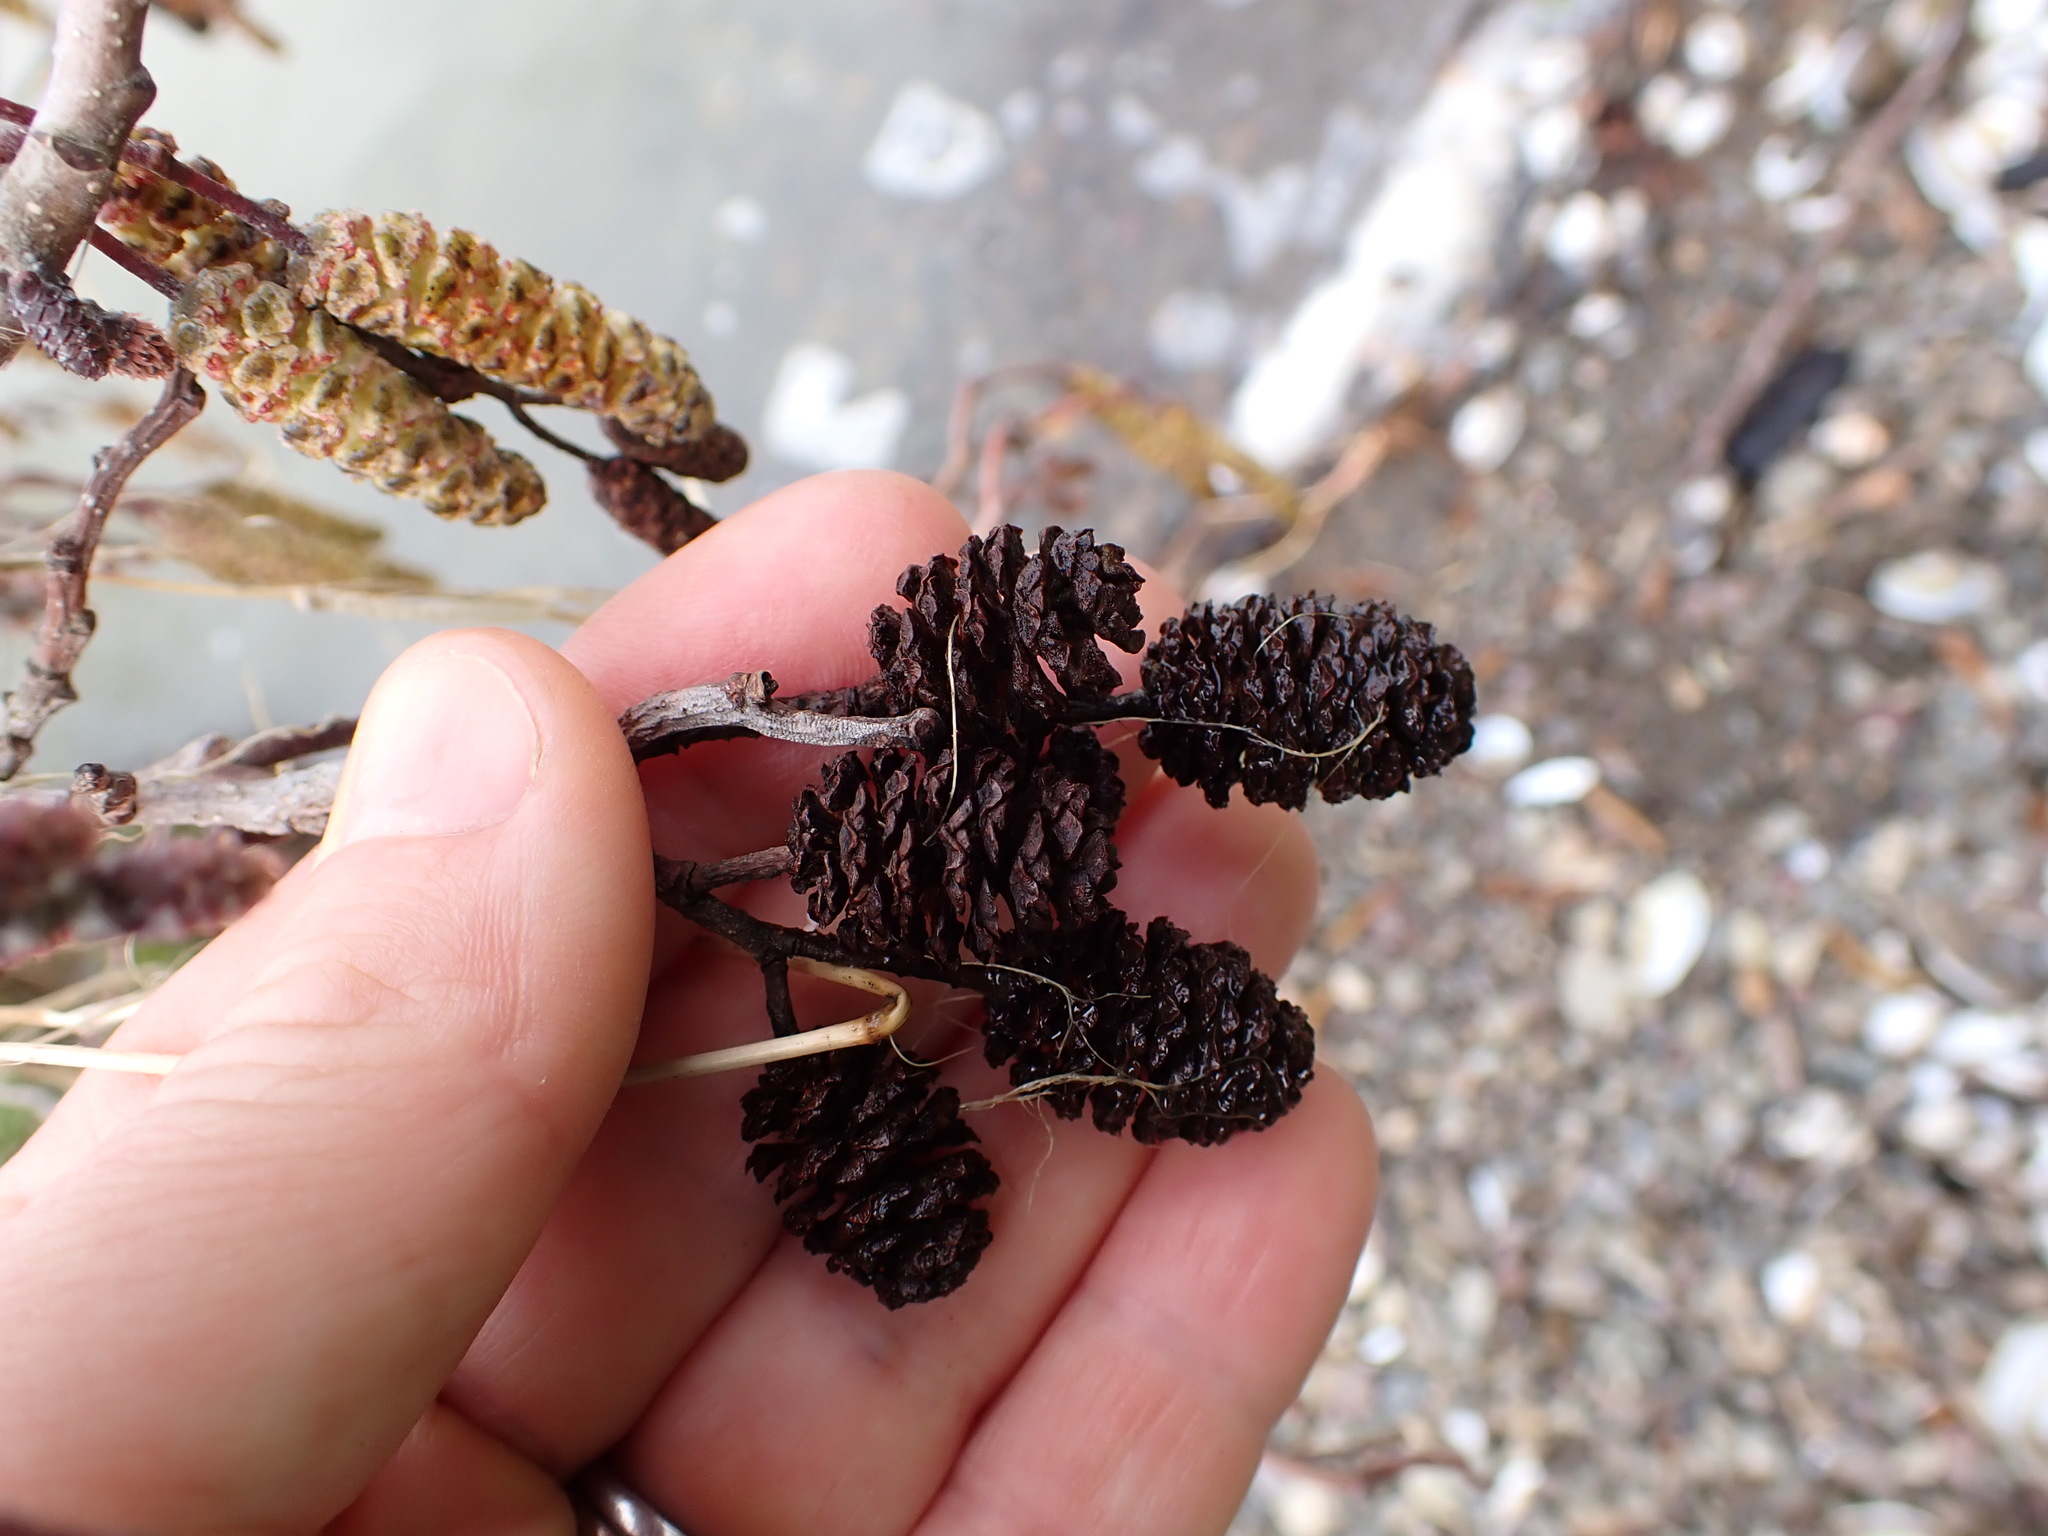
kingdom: Plantae
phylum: Tracheophyta
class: Magnoliopsida
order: Fagales
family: Betulaceae
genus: Alnus
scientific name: Alnus glutinosa
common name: Black alder
